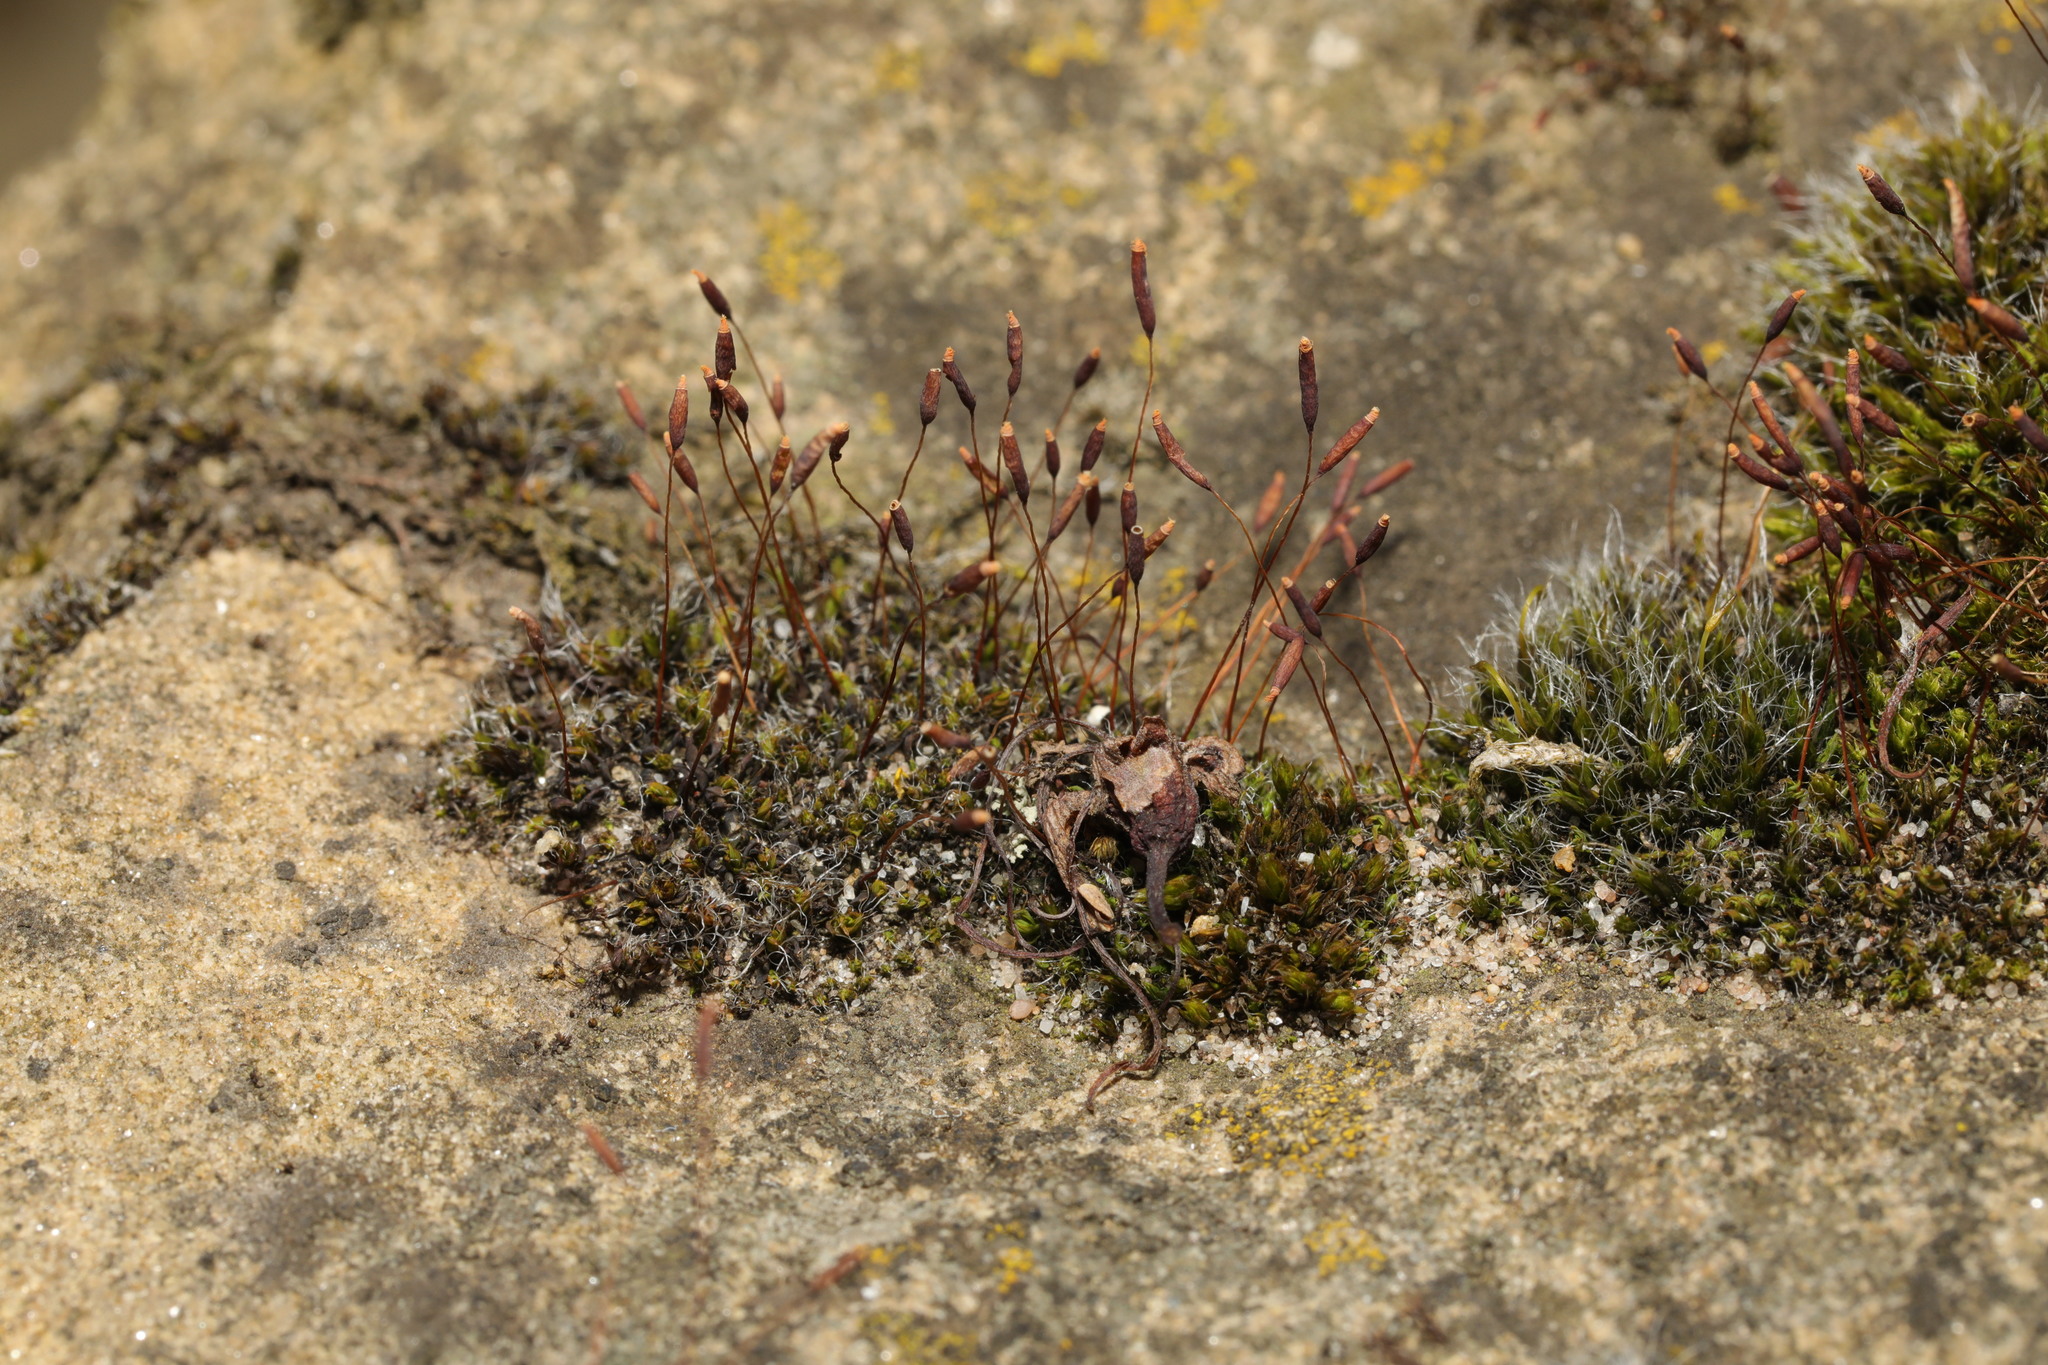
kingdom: Plantae
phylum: Bryophyta
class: Bryopsida
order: Pottiales
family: Pottiaceae
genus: Tortula
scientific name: Tortula muralis
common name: Wall screw-moss
